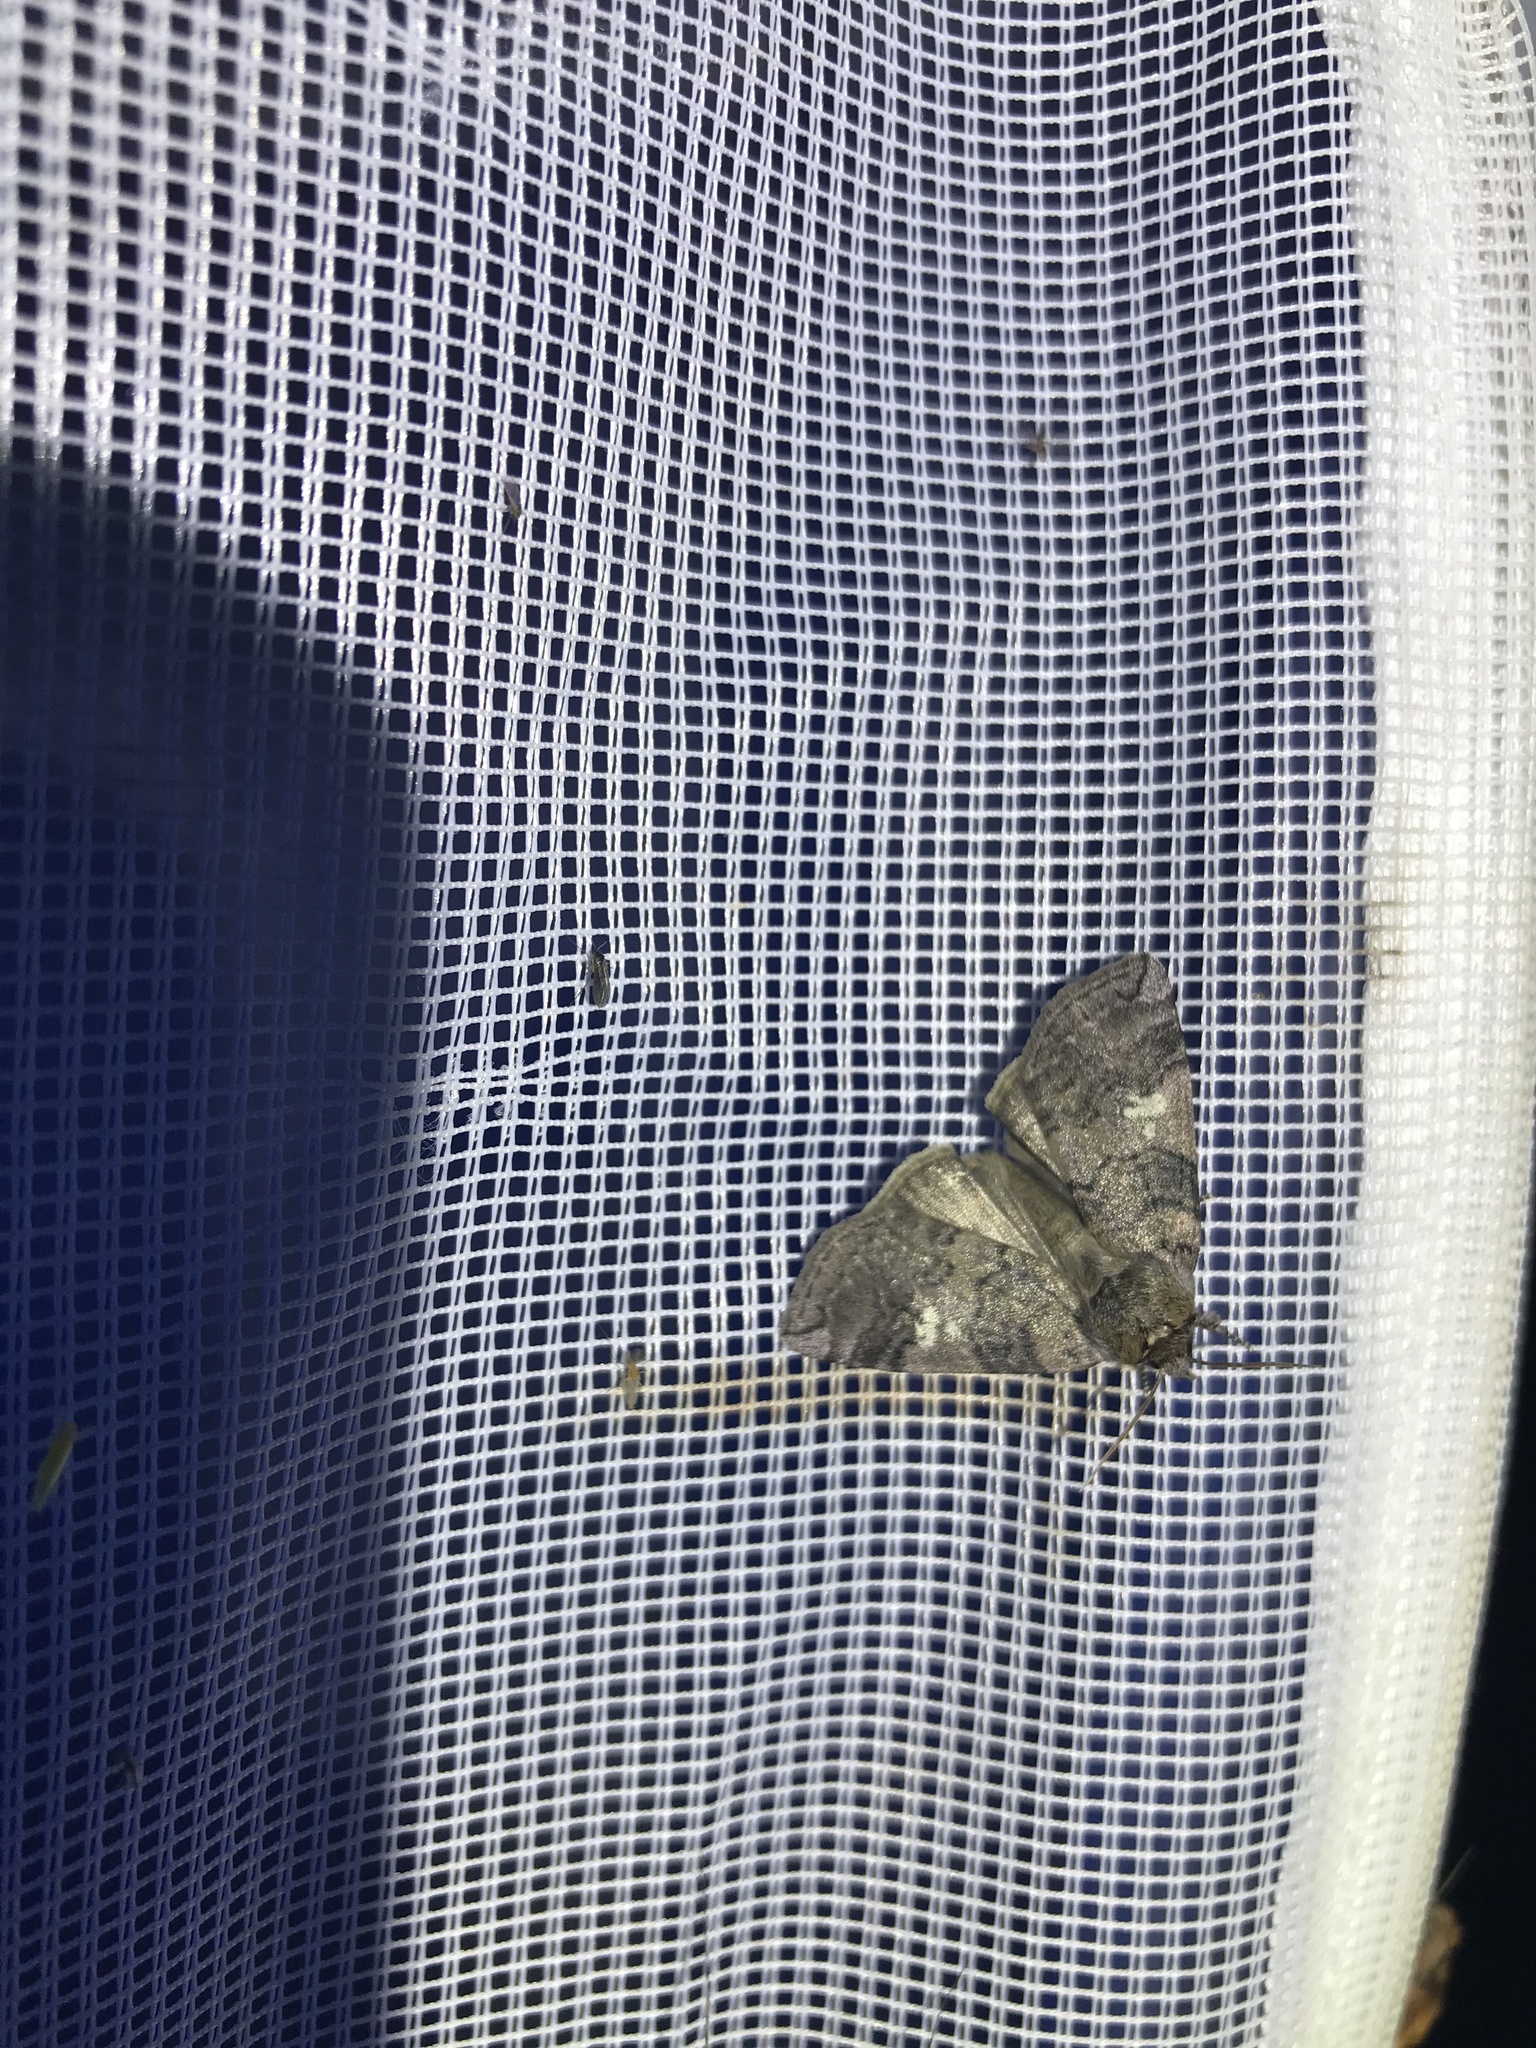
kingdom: Animalia
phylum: Arthropoda
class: Insecta
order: Lepidoptera
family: Drepanidae
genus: Tethea
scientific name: Tethea or
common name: Poplar lutestring
